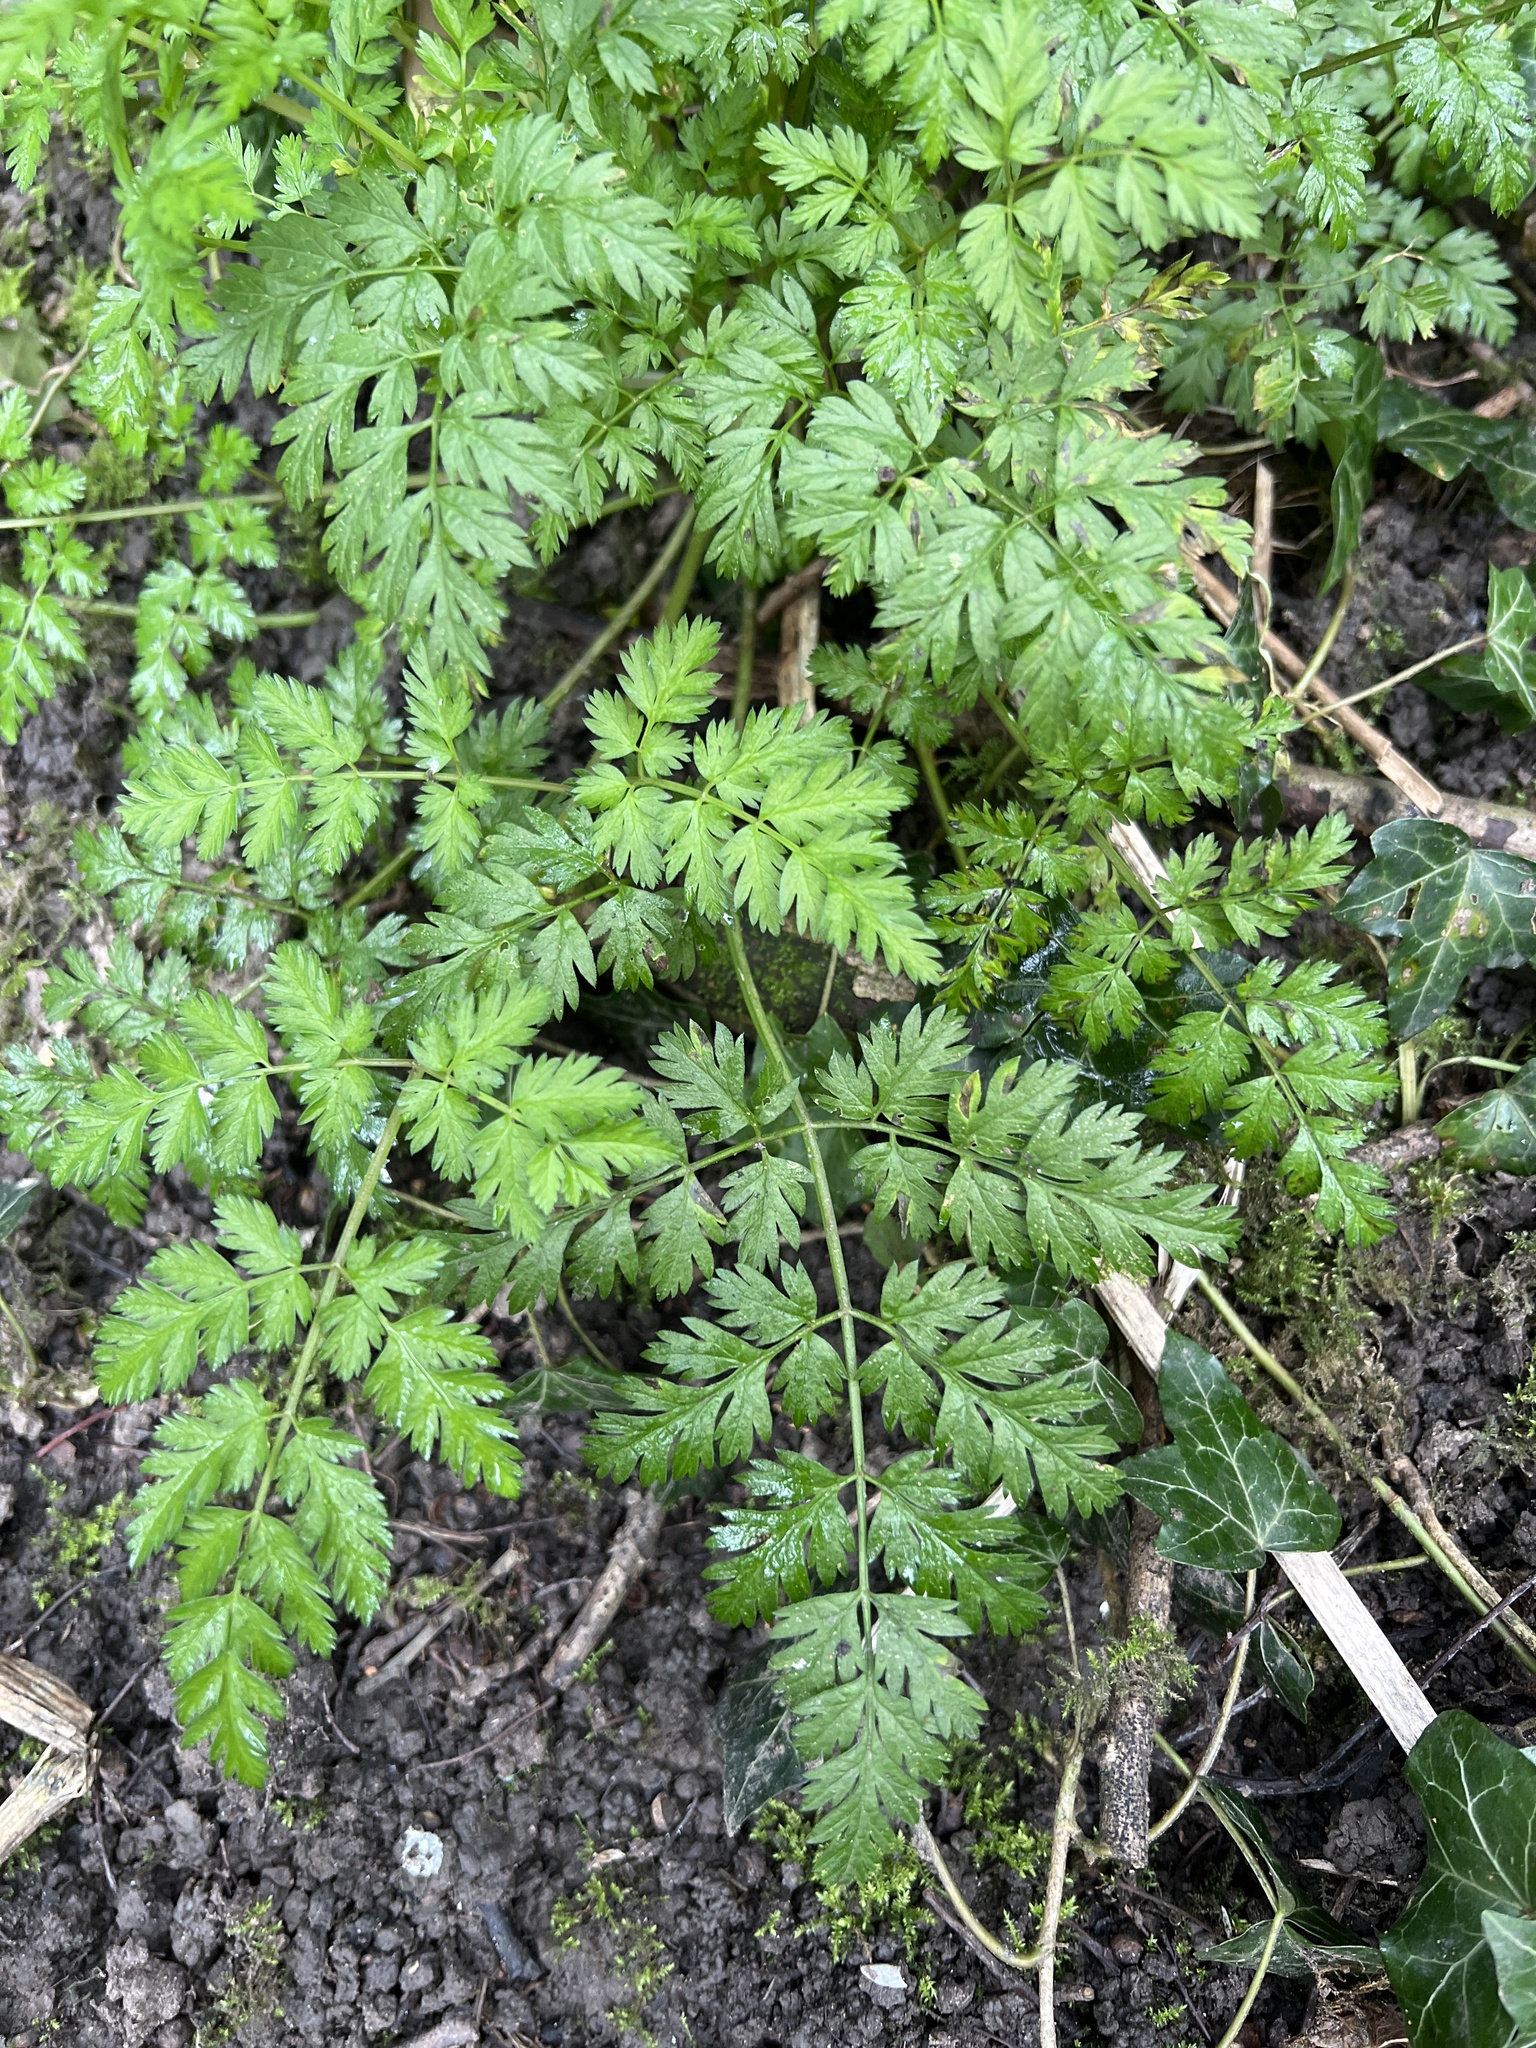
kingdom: Plantae
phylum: Tracheophyta
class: Magnoliopsida
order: Apiales
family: Apiaceae
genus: Anthriscus
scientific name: Anthriscus sylvestris
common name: Cow parsley
